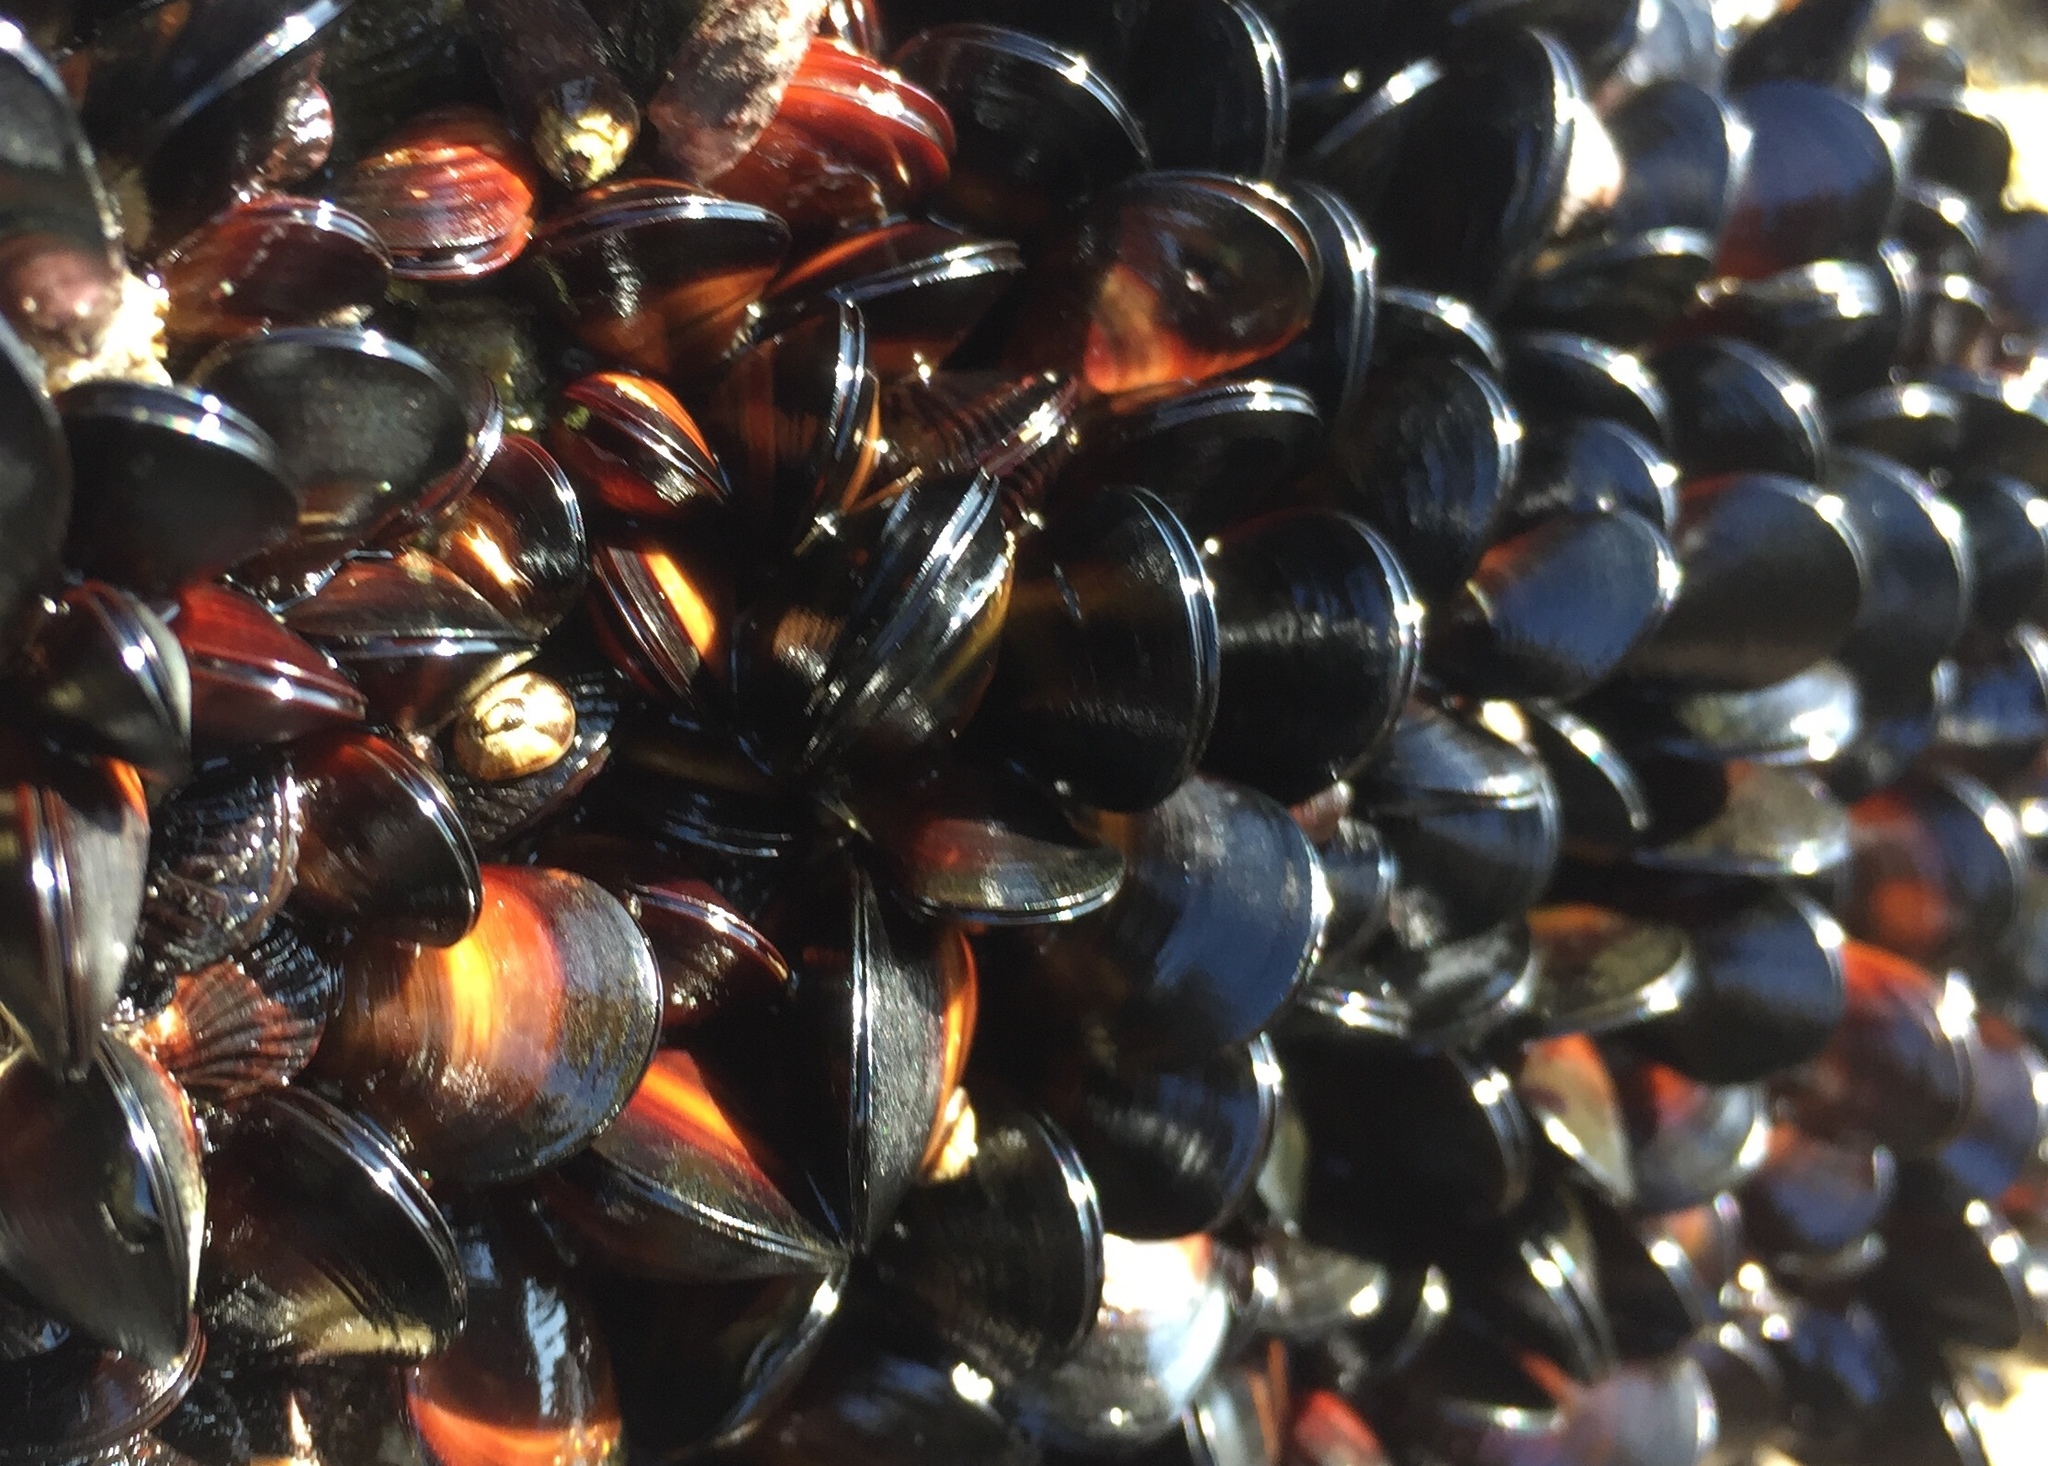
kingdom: Animalia
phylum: Mollusca
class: Bivalvia
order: Mytilida
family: Mytilidae
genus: Semimytilus
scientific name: Semimytilus patagonicus
